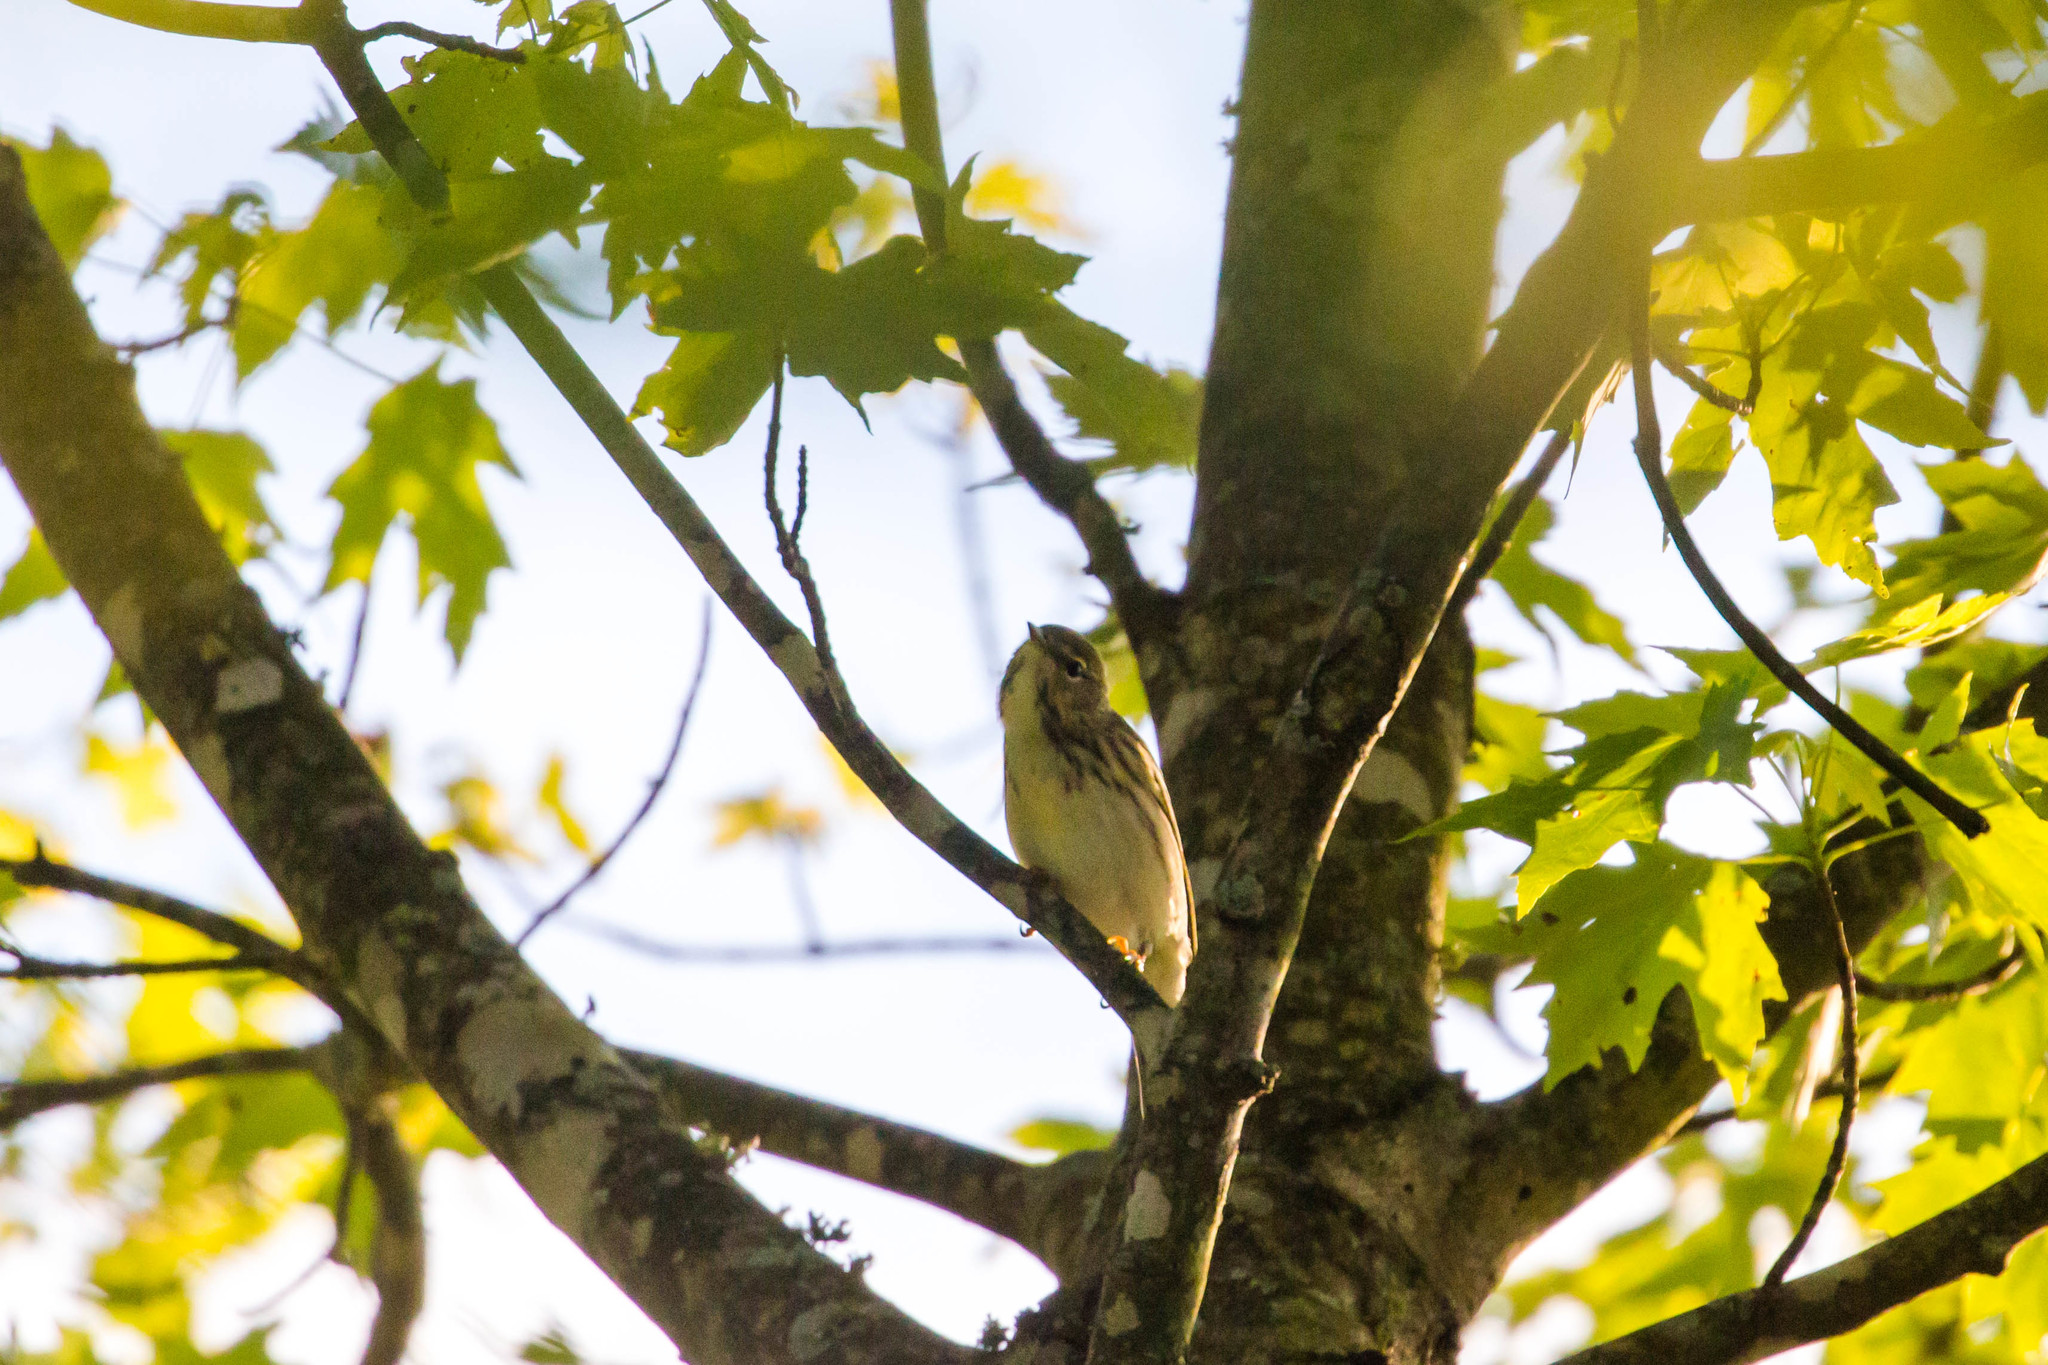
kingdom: Animalia
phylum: Chordata
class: Aves
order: Passeriformes
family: Parulidae
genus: Setophaga
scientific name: Setophaga striata
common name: Blackpoll warbler
